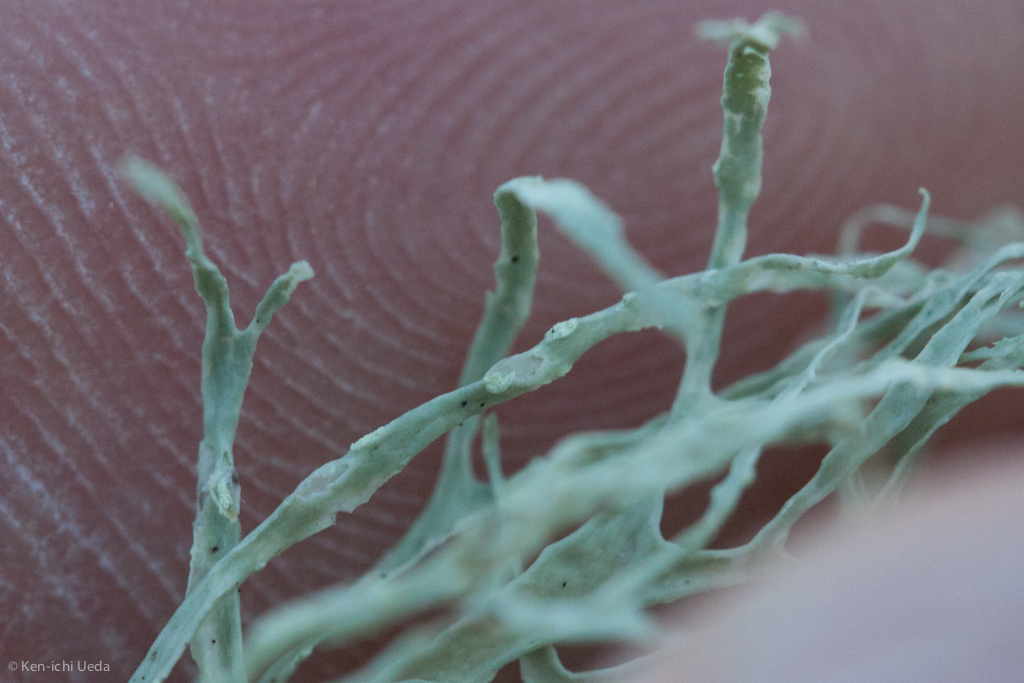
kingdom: Fungi
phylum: Ascomycota
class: Lecanoromycetes
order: Lecanorales
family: Ramalinaceae
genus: Ramalina
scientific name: Ramalina farinacea
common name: Farinose cartilage lichen
